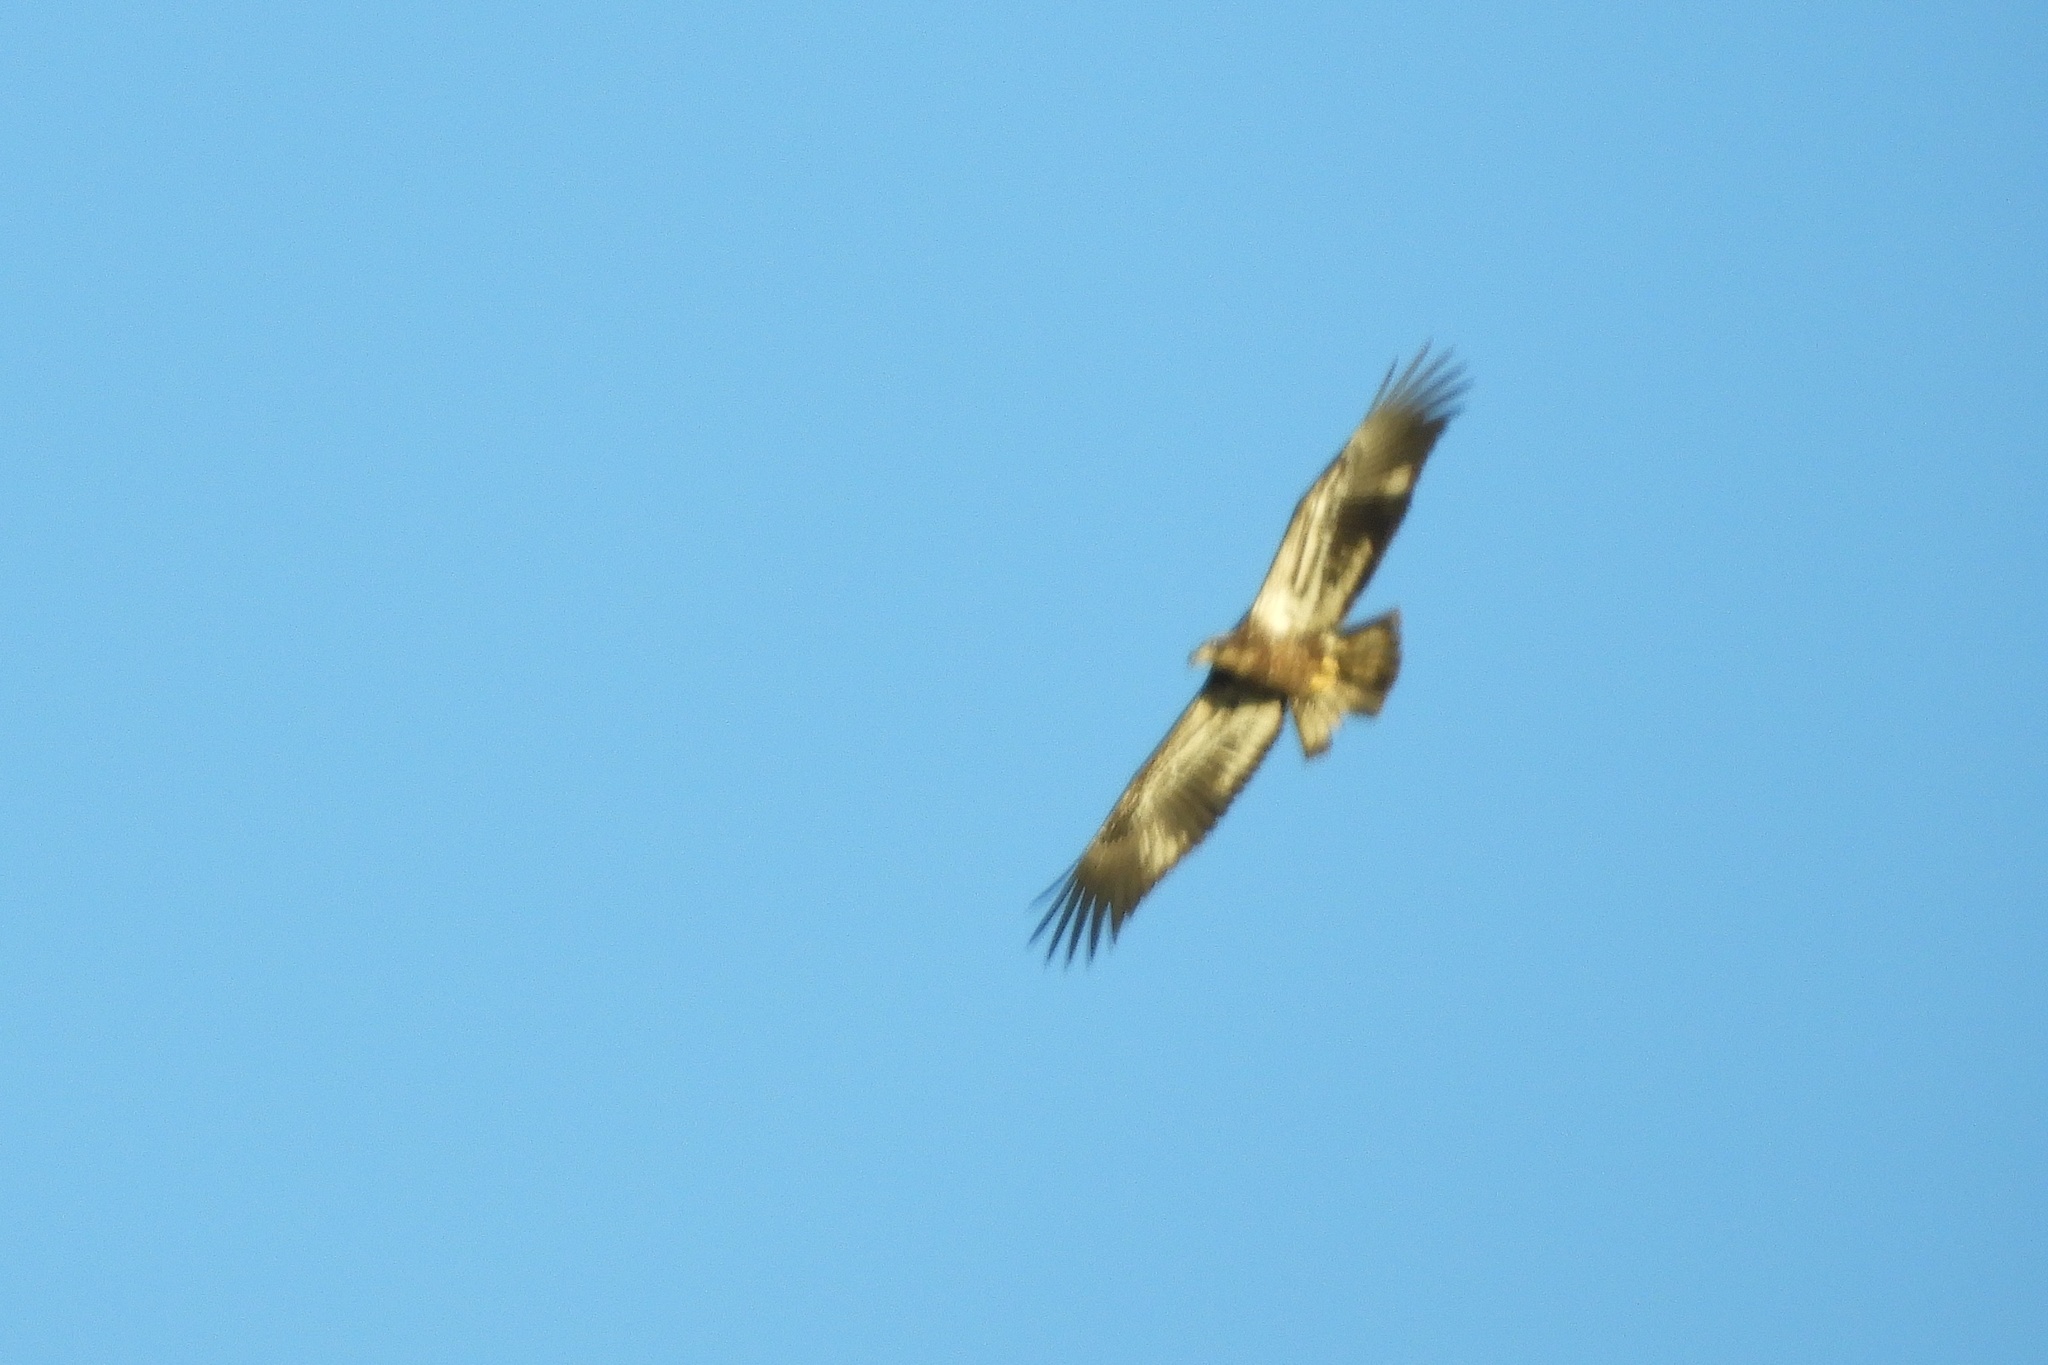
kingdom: Animalia
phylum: Chordata
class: Aves
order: Accipitriformes
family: Accipitridae
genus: Haliaeetus
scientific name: Haliaeetus leucocephalus
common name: Bald eagle
